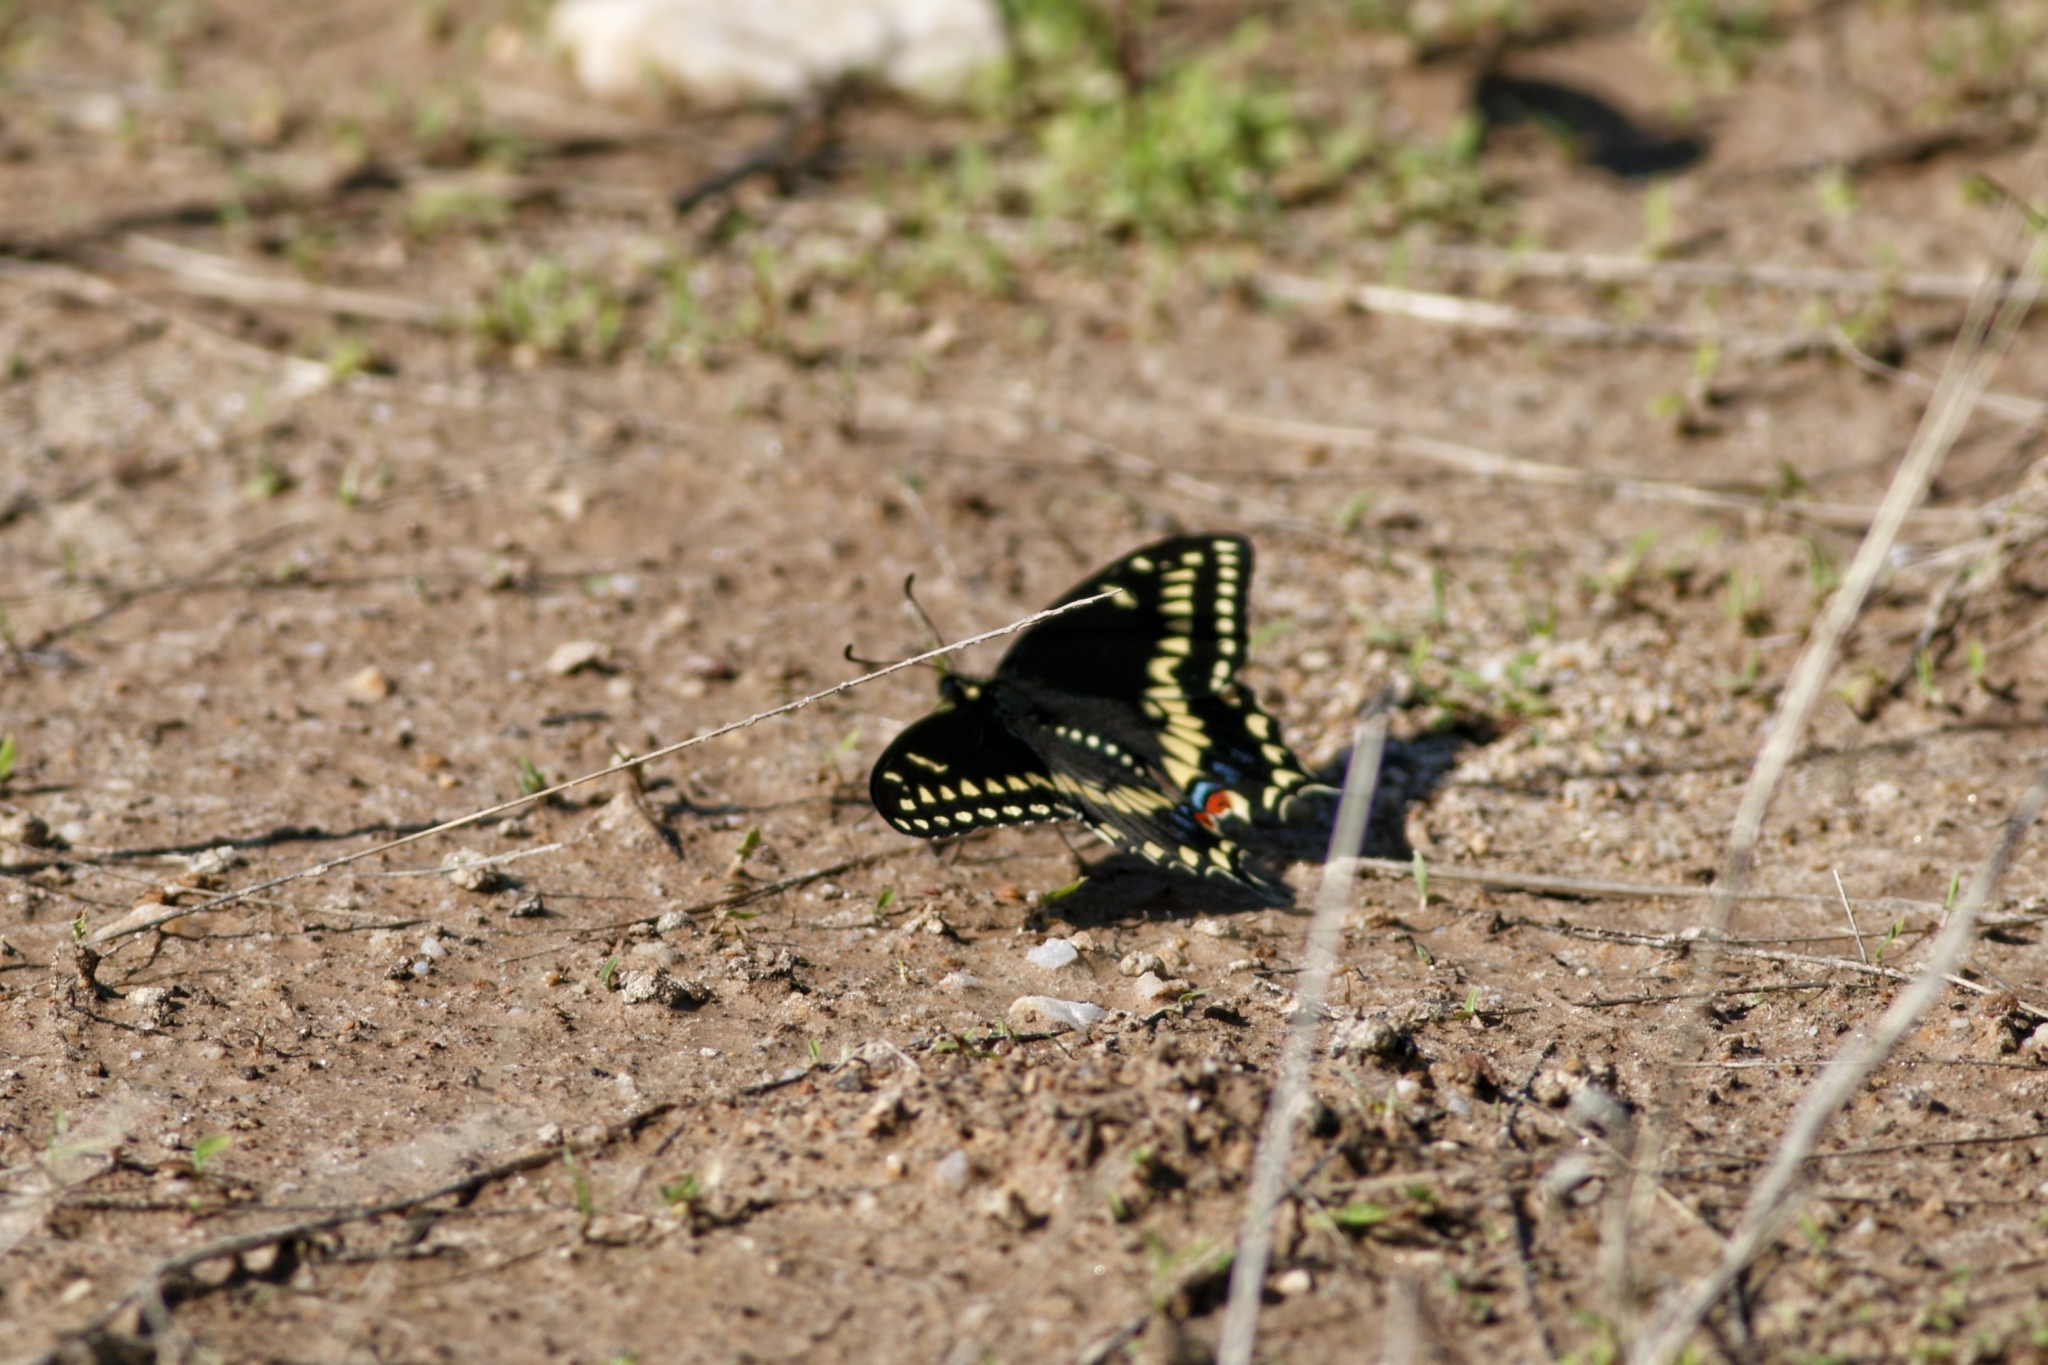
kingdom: Animalia
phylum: Arthropoda
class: Insecta
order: Lepidoptera
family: Papilionidae
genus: Papilio
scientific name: Papilio polyxenes
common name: Black swallowtail
